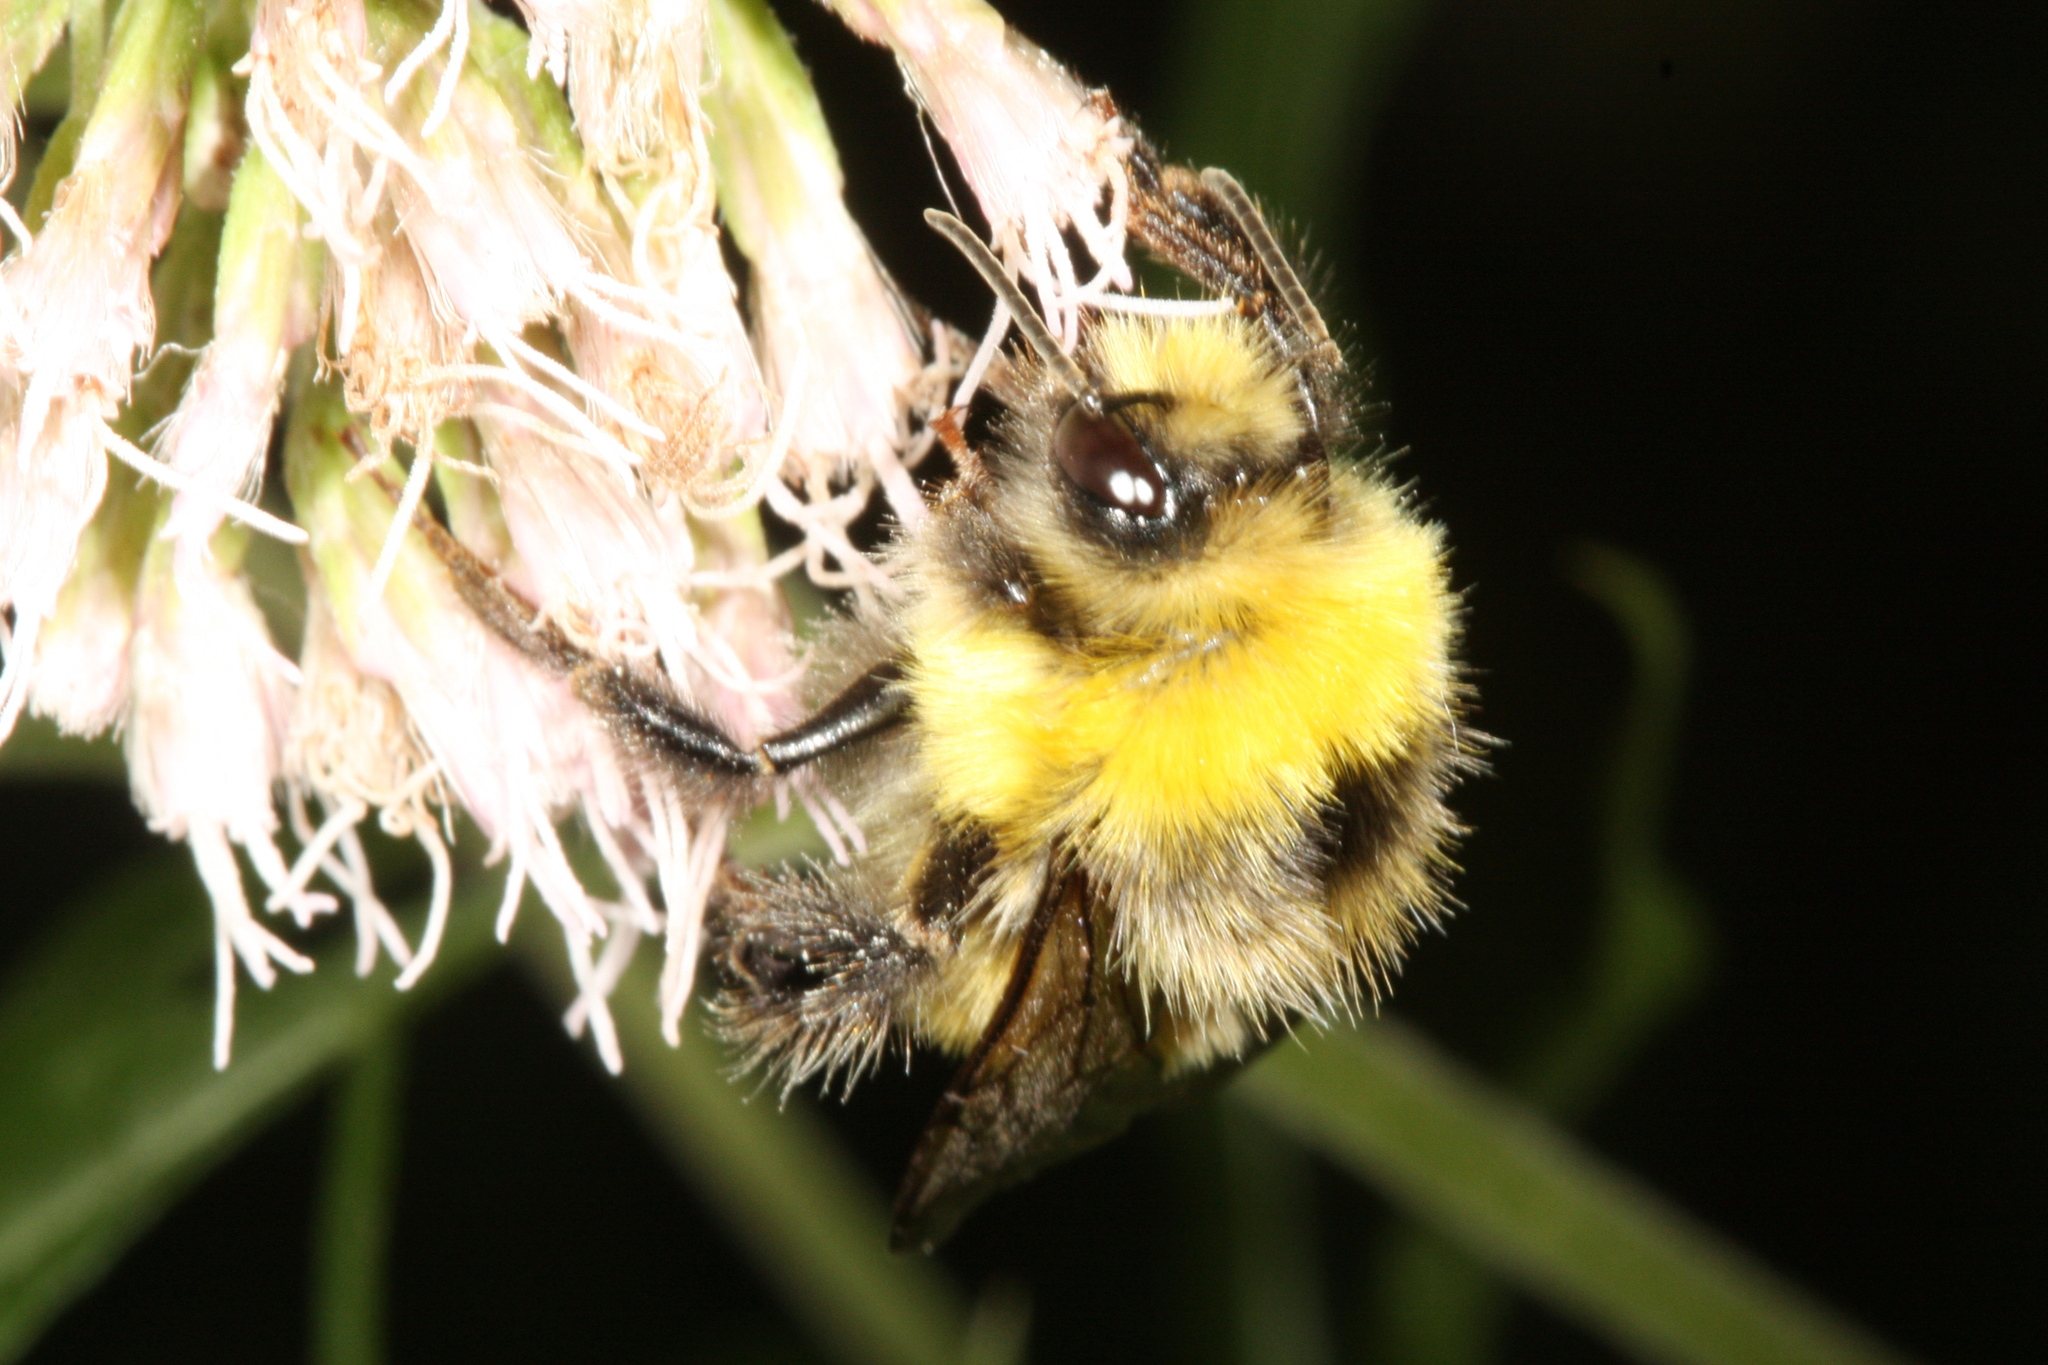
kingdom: Animalia
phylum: Arthropoda
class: Insecta
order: Hymenoptera
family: Apidae
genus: Bombus
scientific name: Bombus lucorum
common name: White-tailed bumblebee
